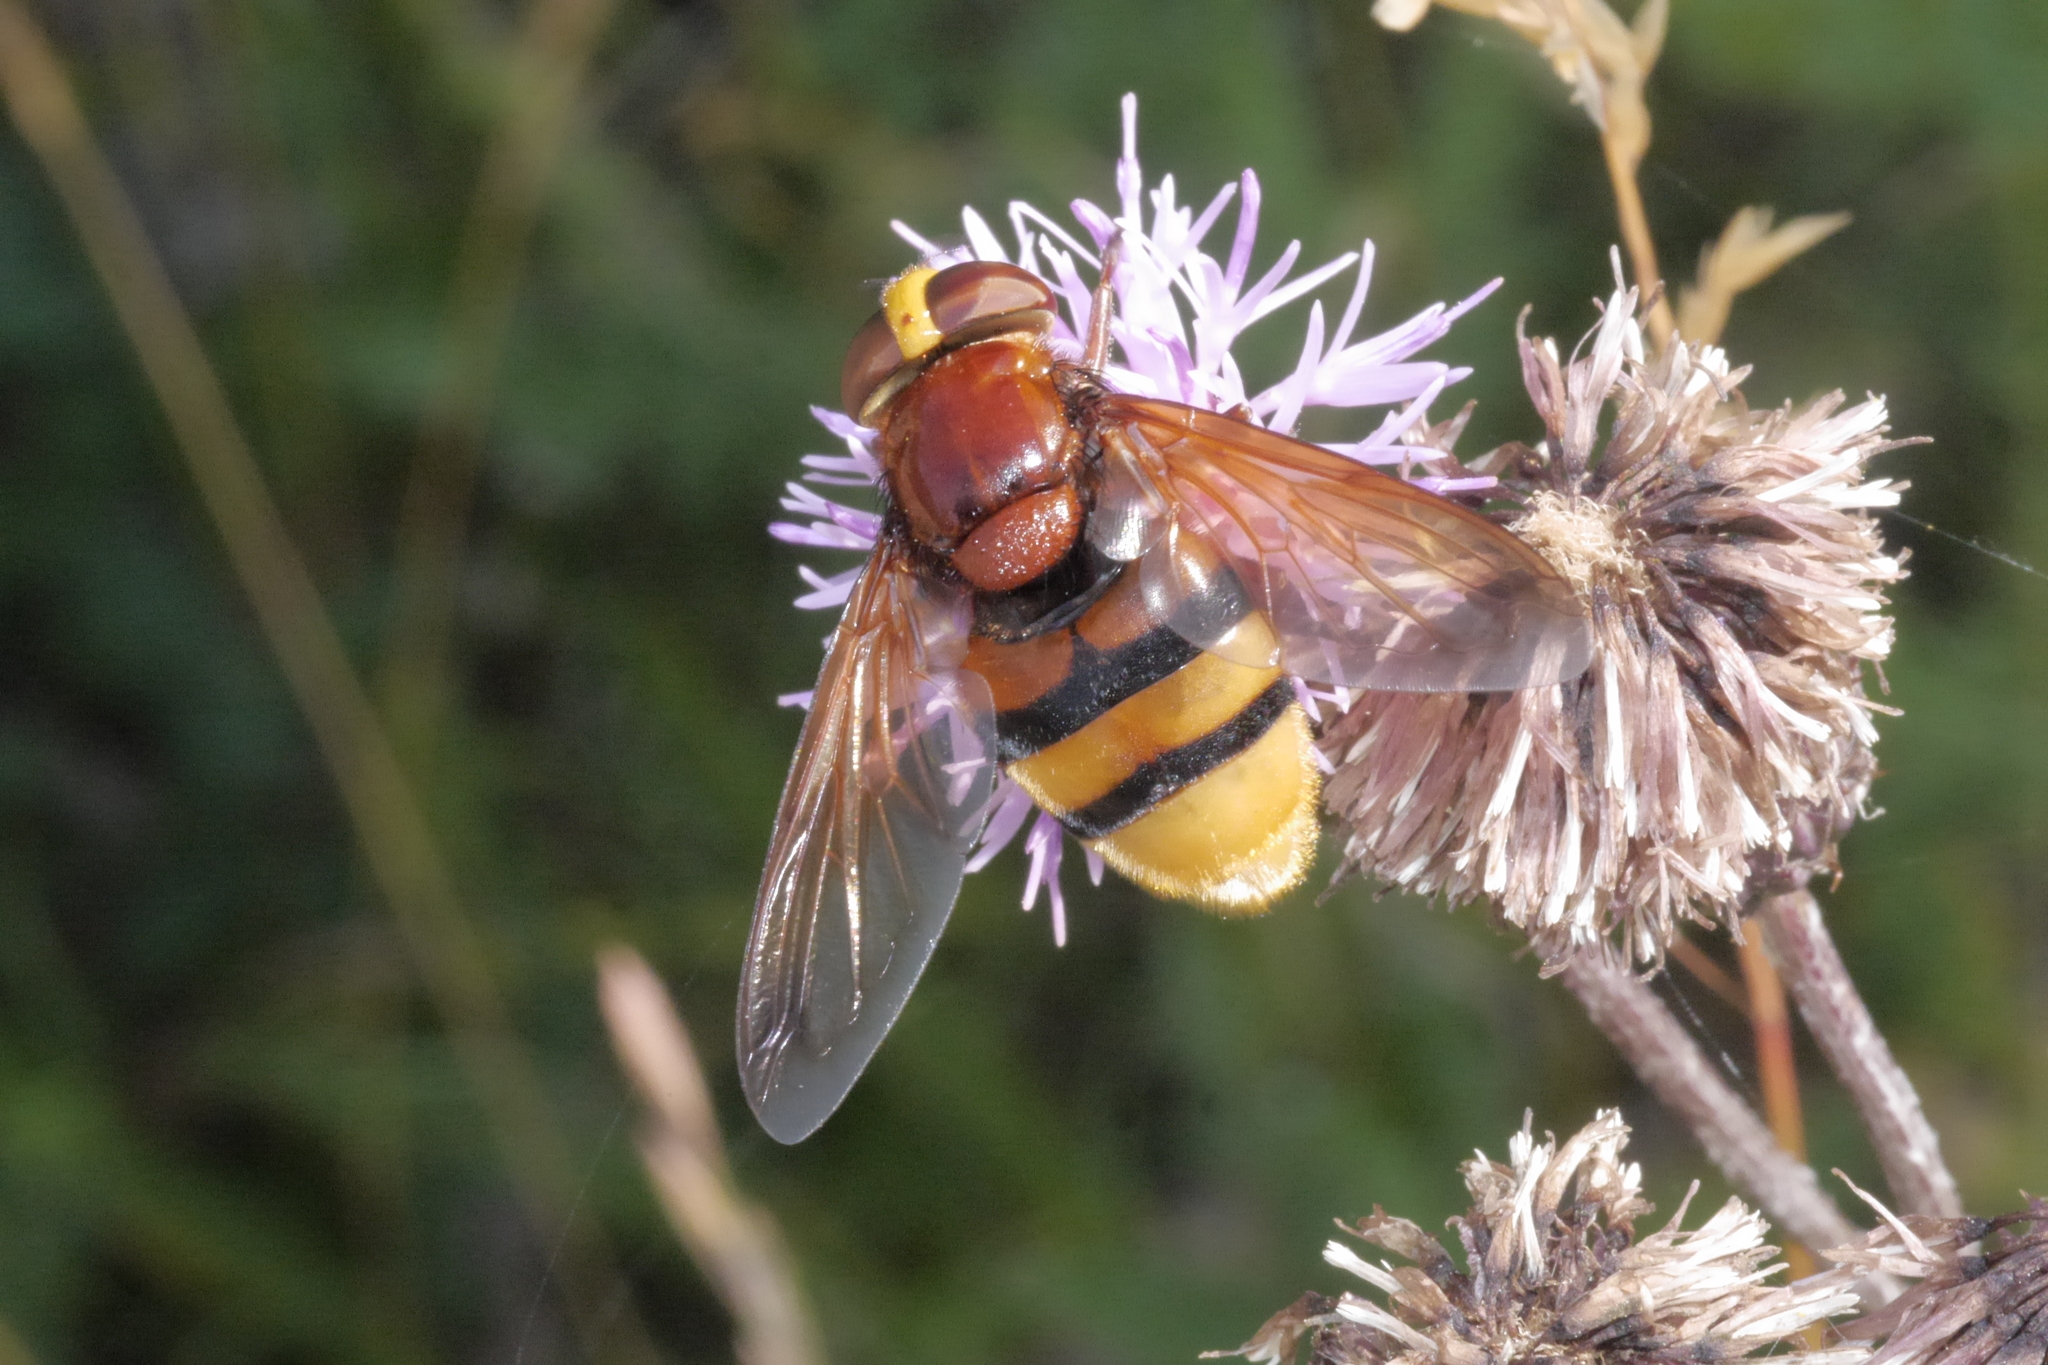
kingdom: Animalia
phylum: Arthropoda
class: Insecta
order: Diptera
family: Syrphidae
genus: Volucella
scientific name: Volucella zonaria
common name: Hornet hoverfly
